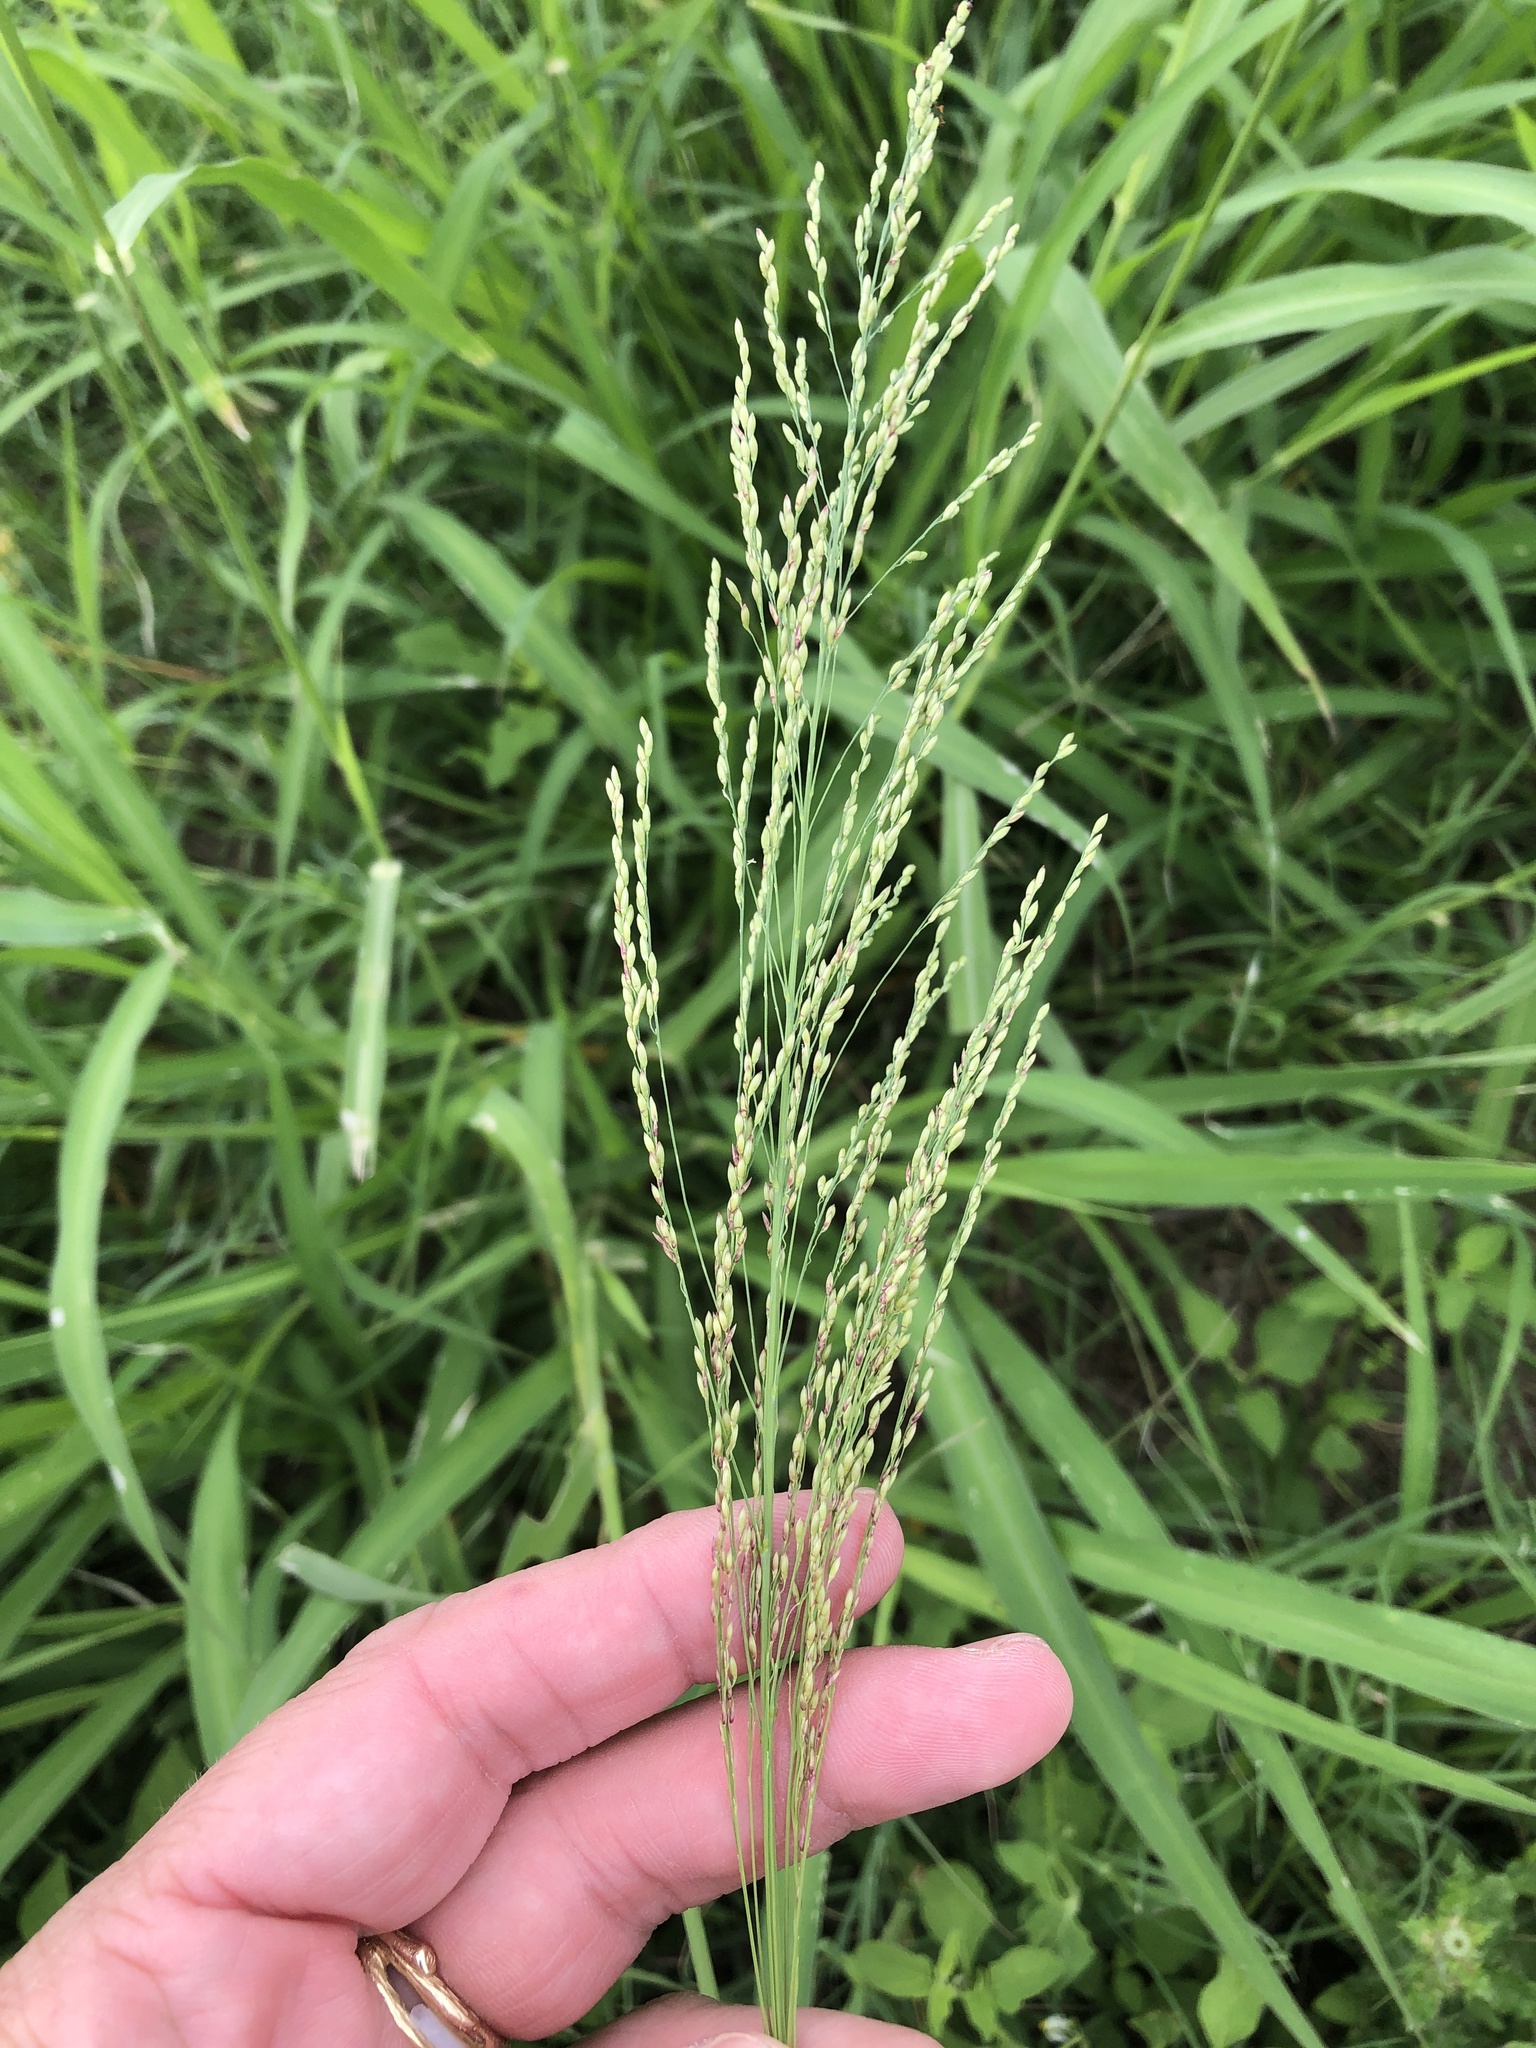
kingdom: Plantae
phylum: Tracheophyta
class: Liliopsida
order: Poales
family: Poaceae
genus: Megathyrsus
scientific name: Megathyrsus maximus
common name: Guineagrass
